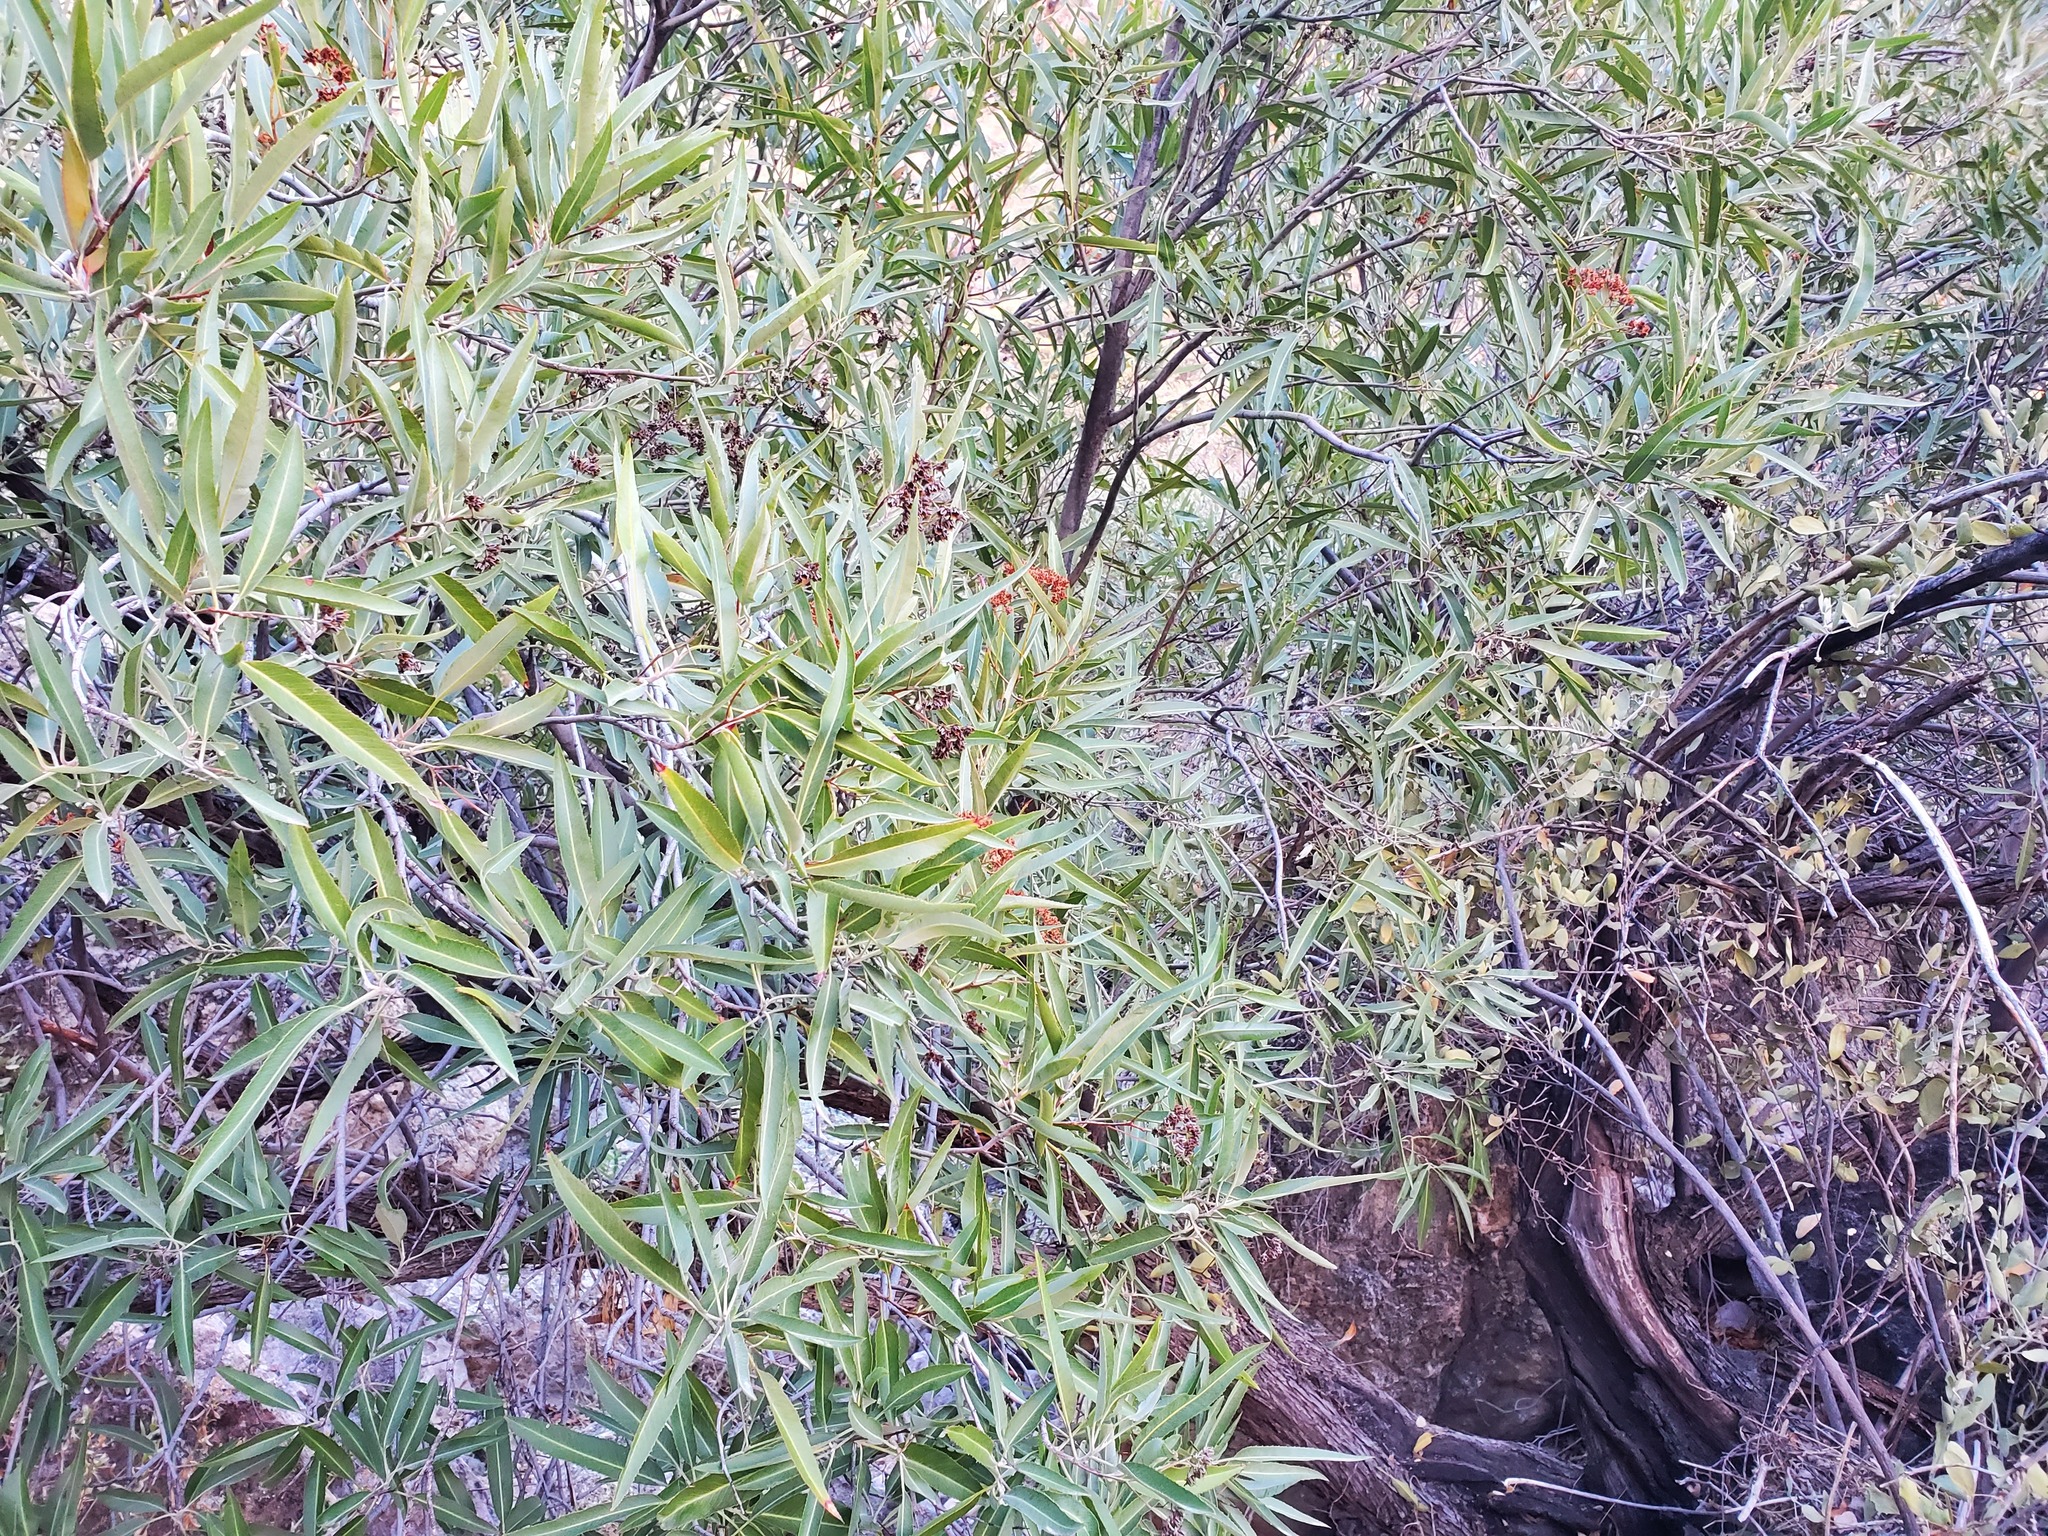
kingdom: Plantae
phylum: Tracheophyta
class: Magnoliopsida
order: Rosales
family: Rosaceae
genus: Vauquelinia
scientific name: Vauquelinia californica
